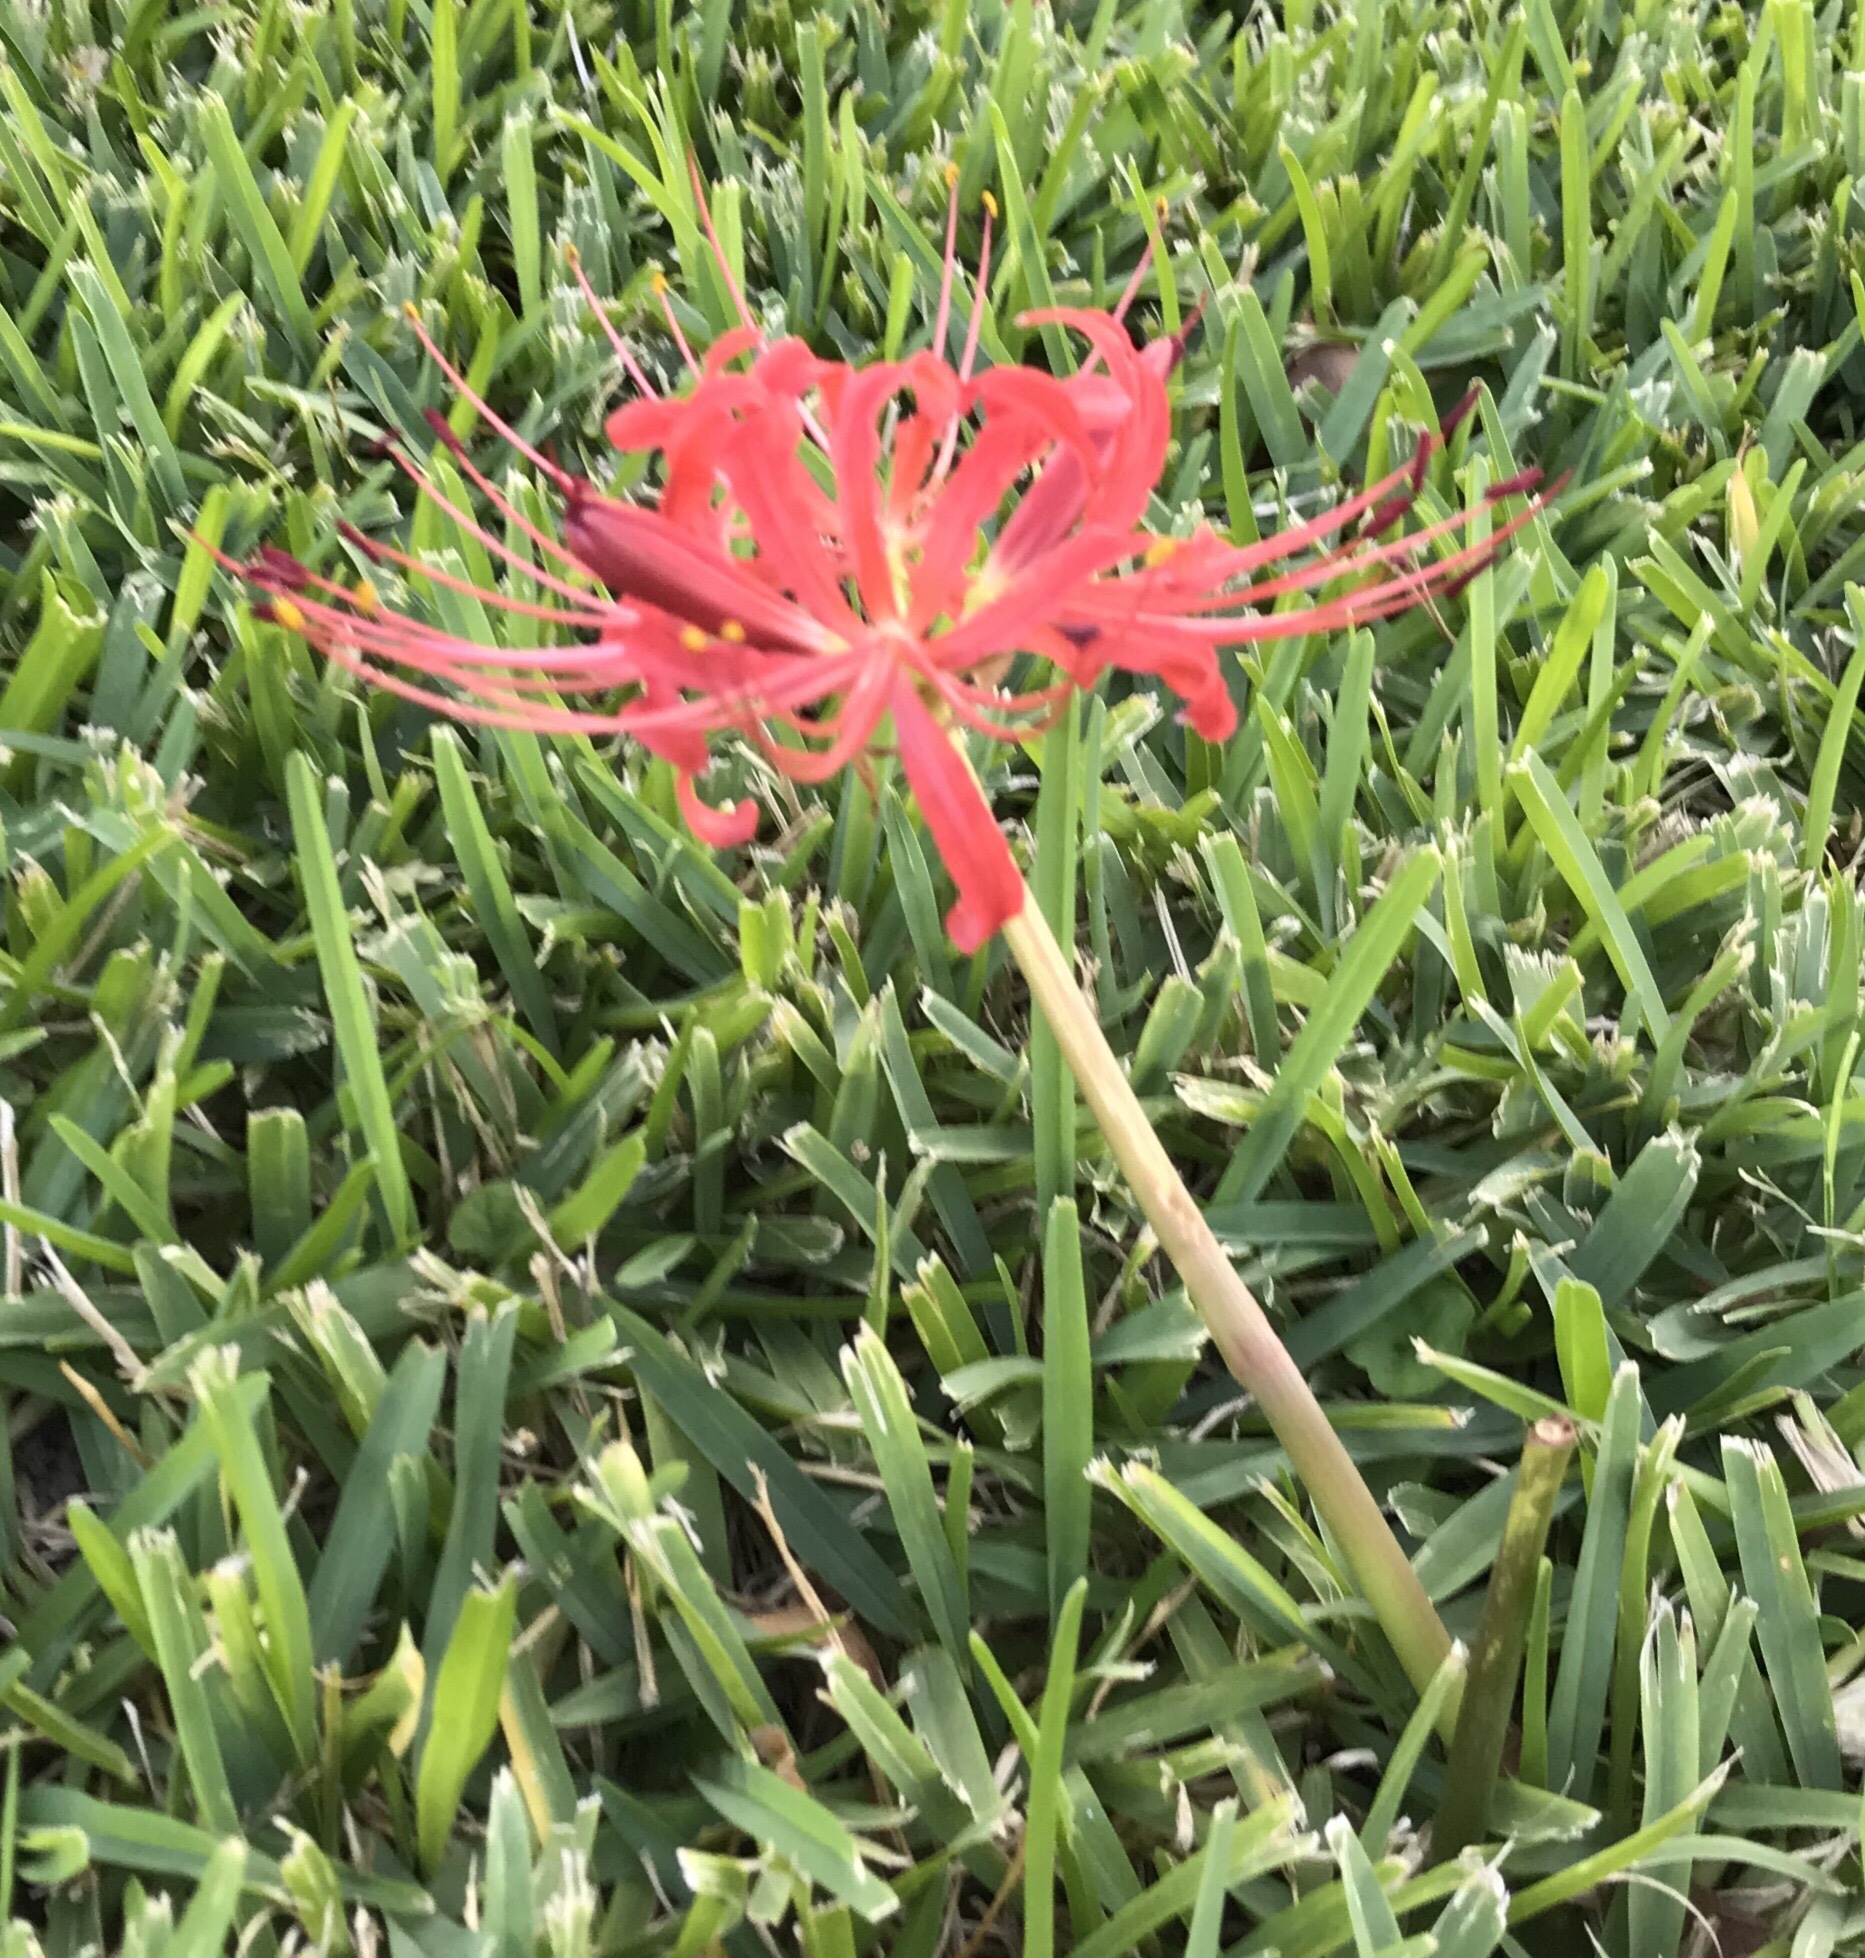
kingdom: Plantae
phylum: Tracheophyta
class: Liliopsida
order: Asparagales
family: Amaryllidaceae
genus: Lycoris
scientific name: Lycoris radiata
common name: Red spider lily
